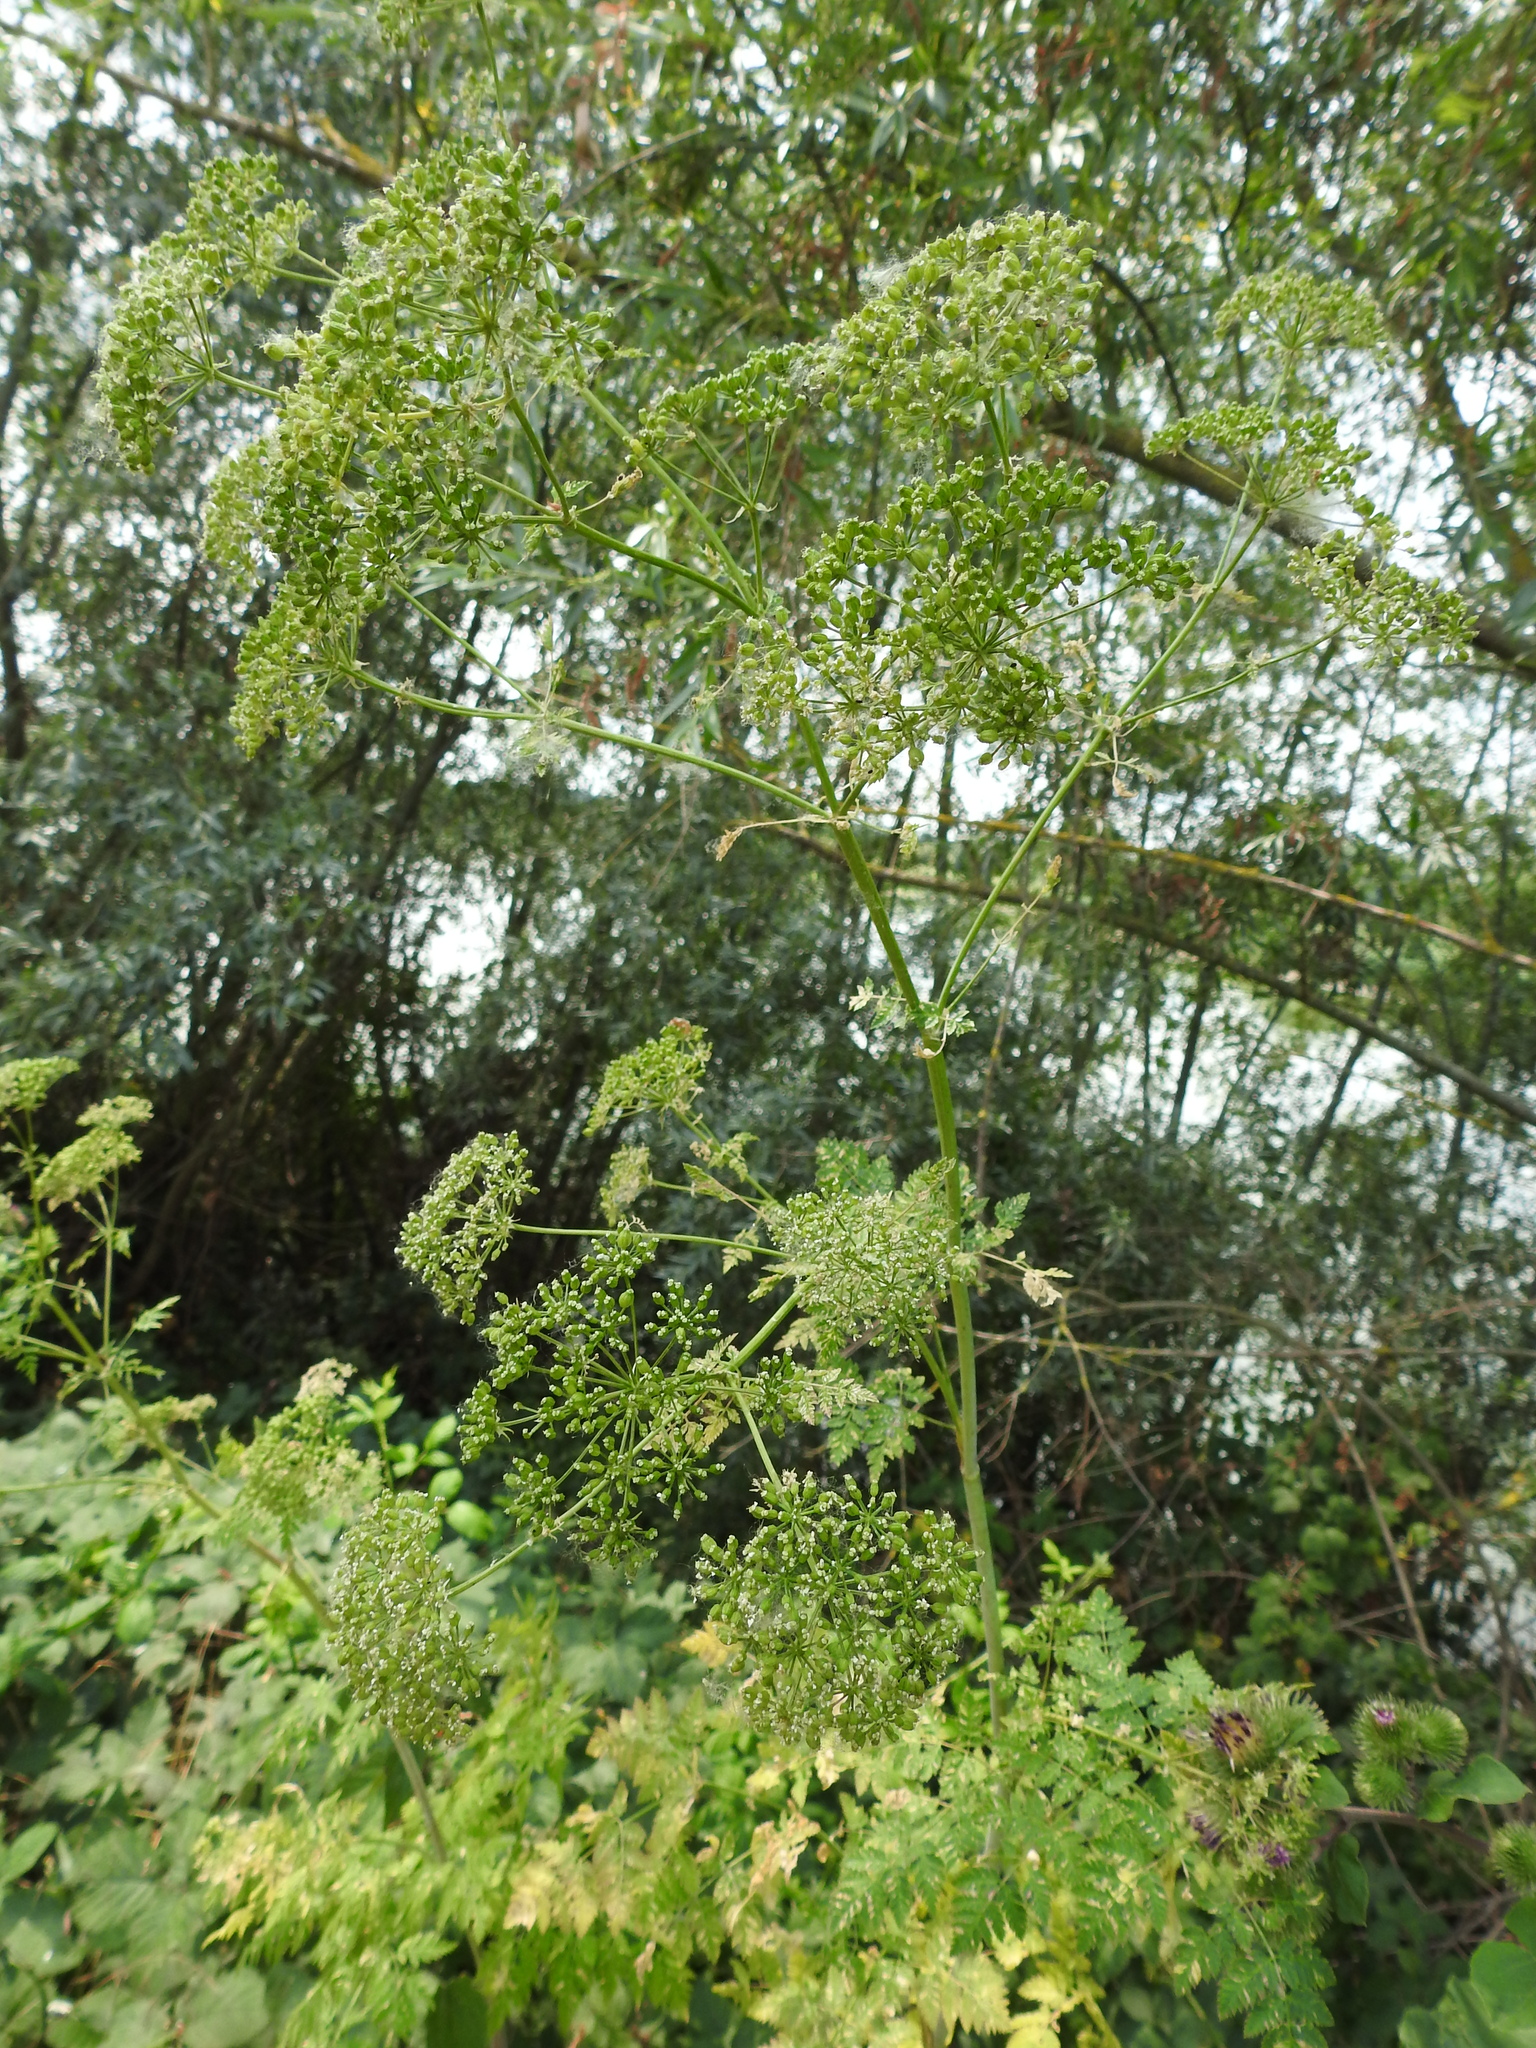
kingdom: Plantae
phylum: Tracheophyta
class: Magnoliopsida
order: Apiales
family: Apiaceae
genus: Conium
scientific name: Conium maculatum
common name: Hemlock
